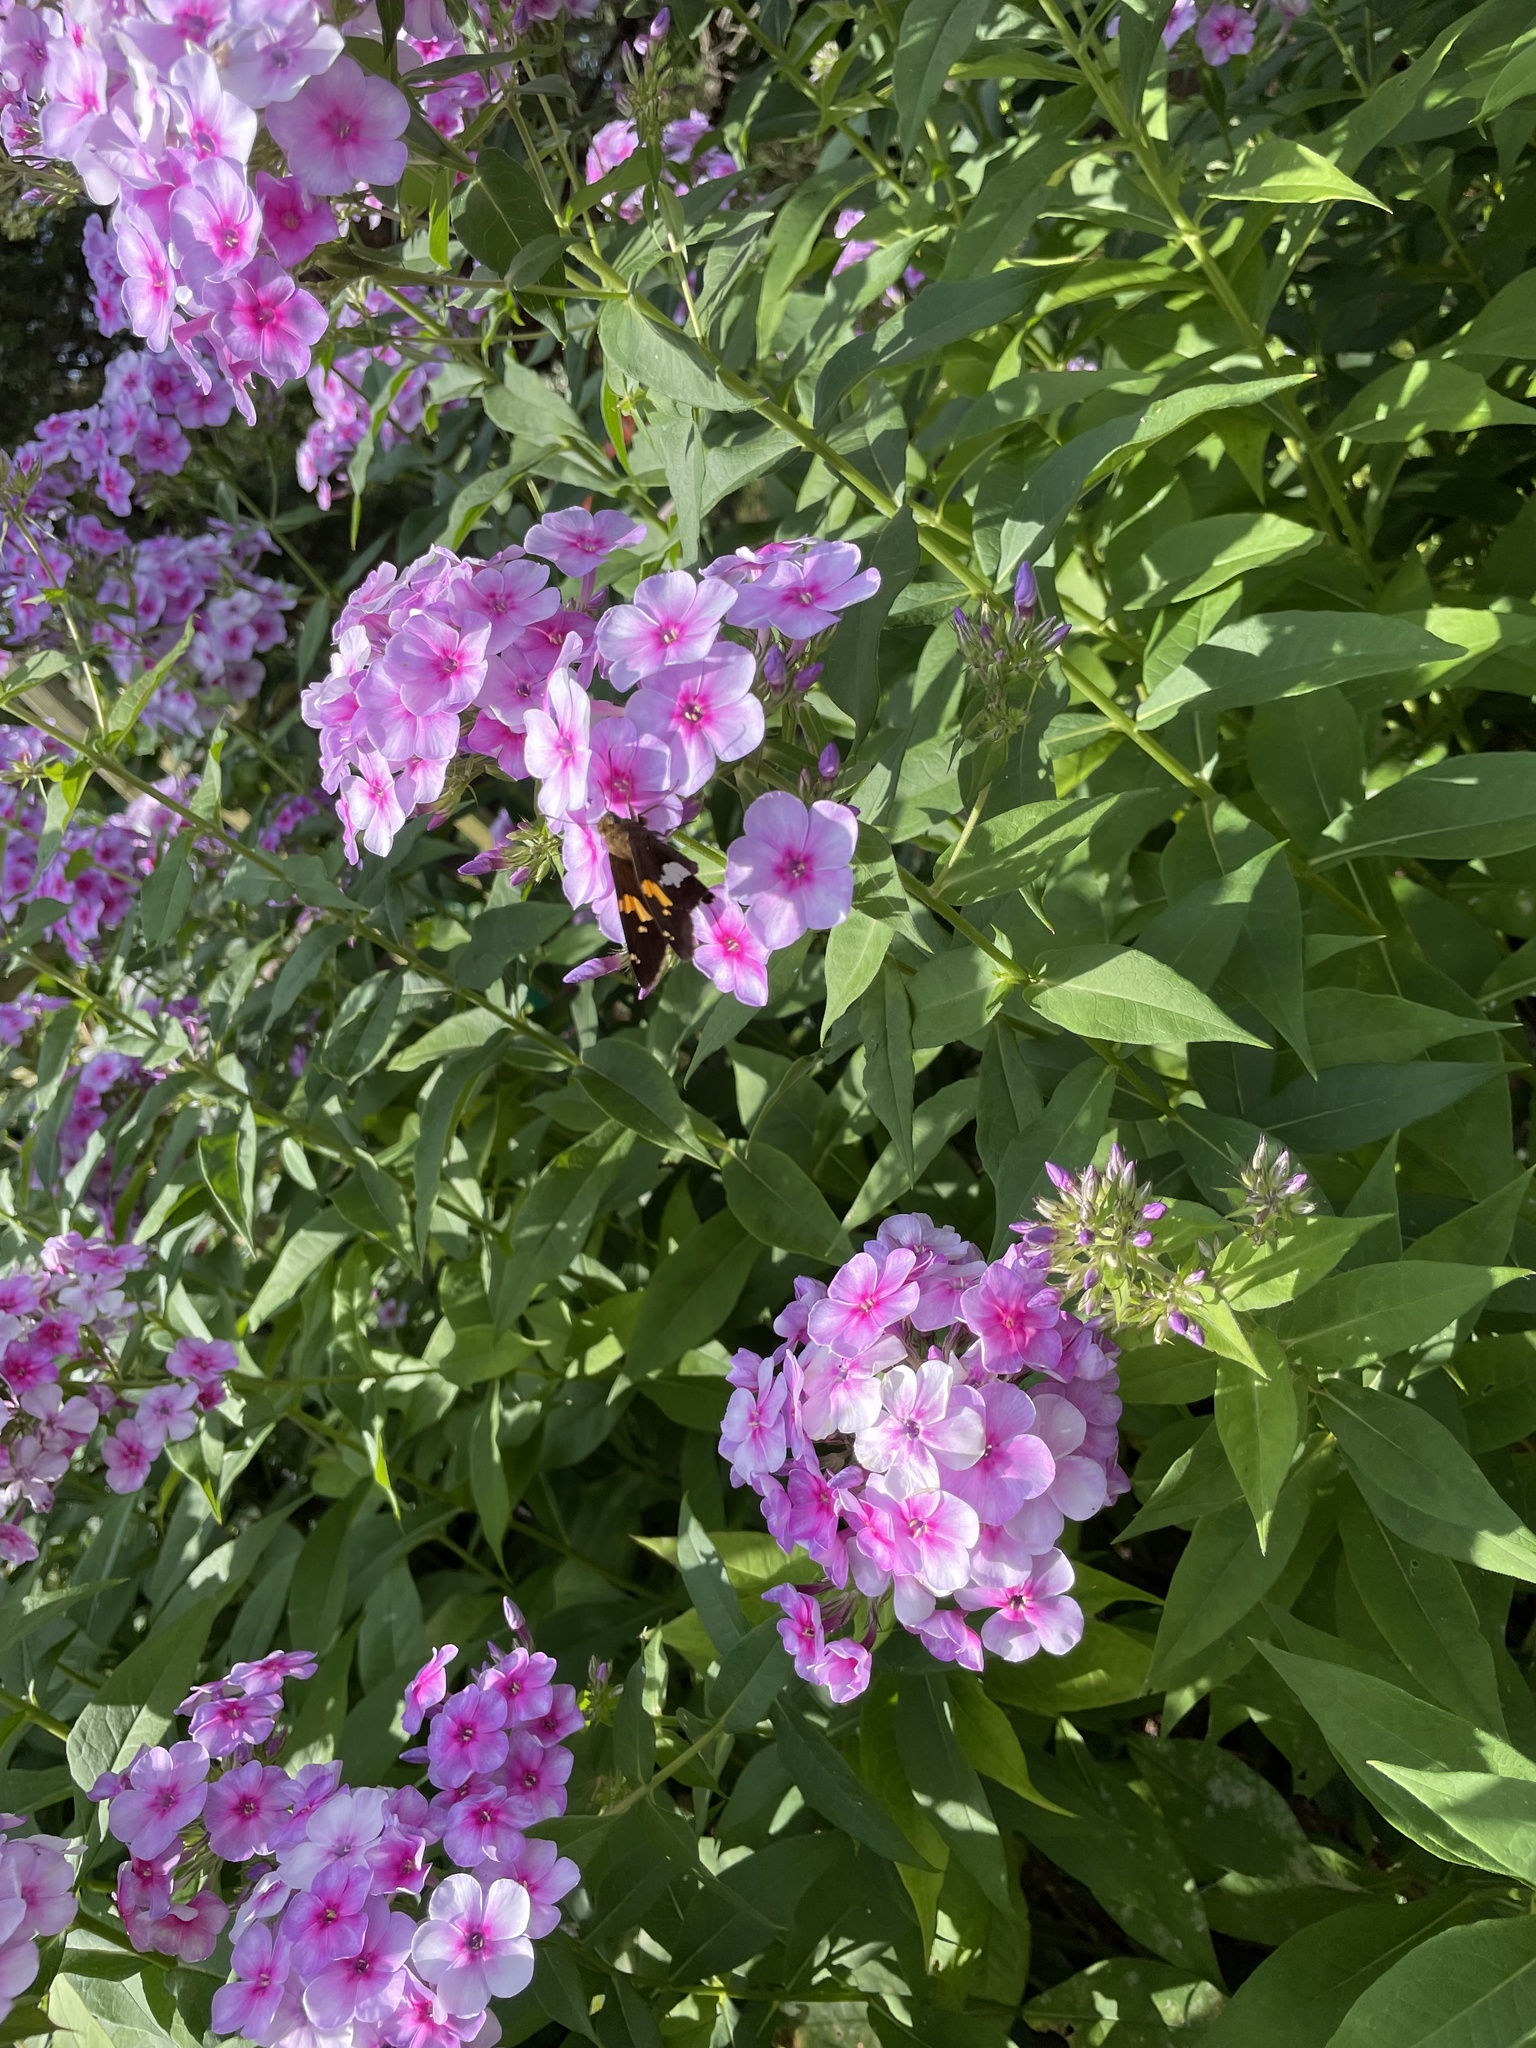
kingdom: Animalia
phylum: Arthropoda
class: Insecta
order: Lepidoptera
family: Hesperiidae
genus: Epargyreus
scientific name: Epargyreus clarus
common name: Silver-spotted skipper
